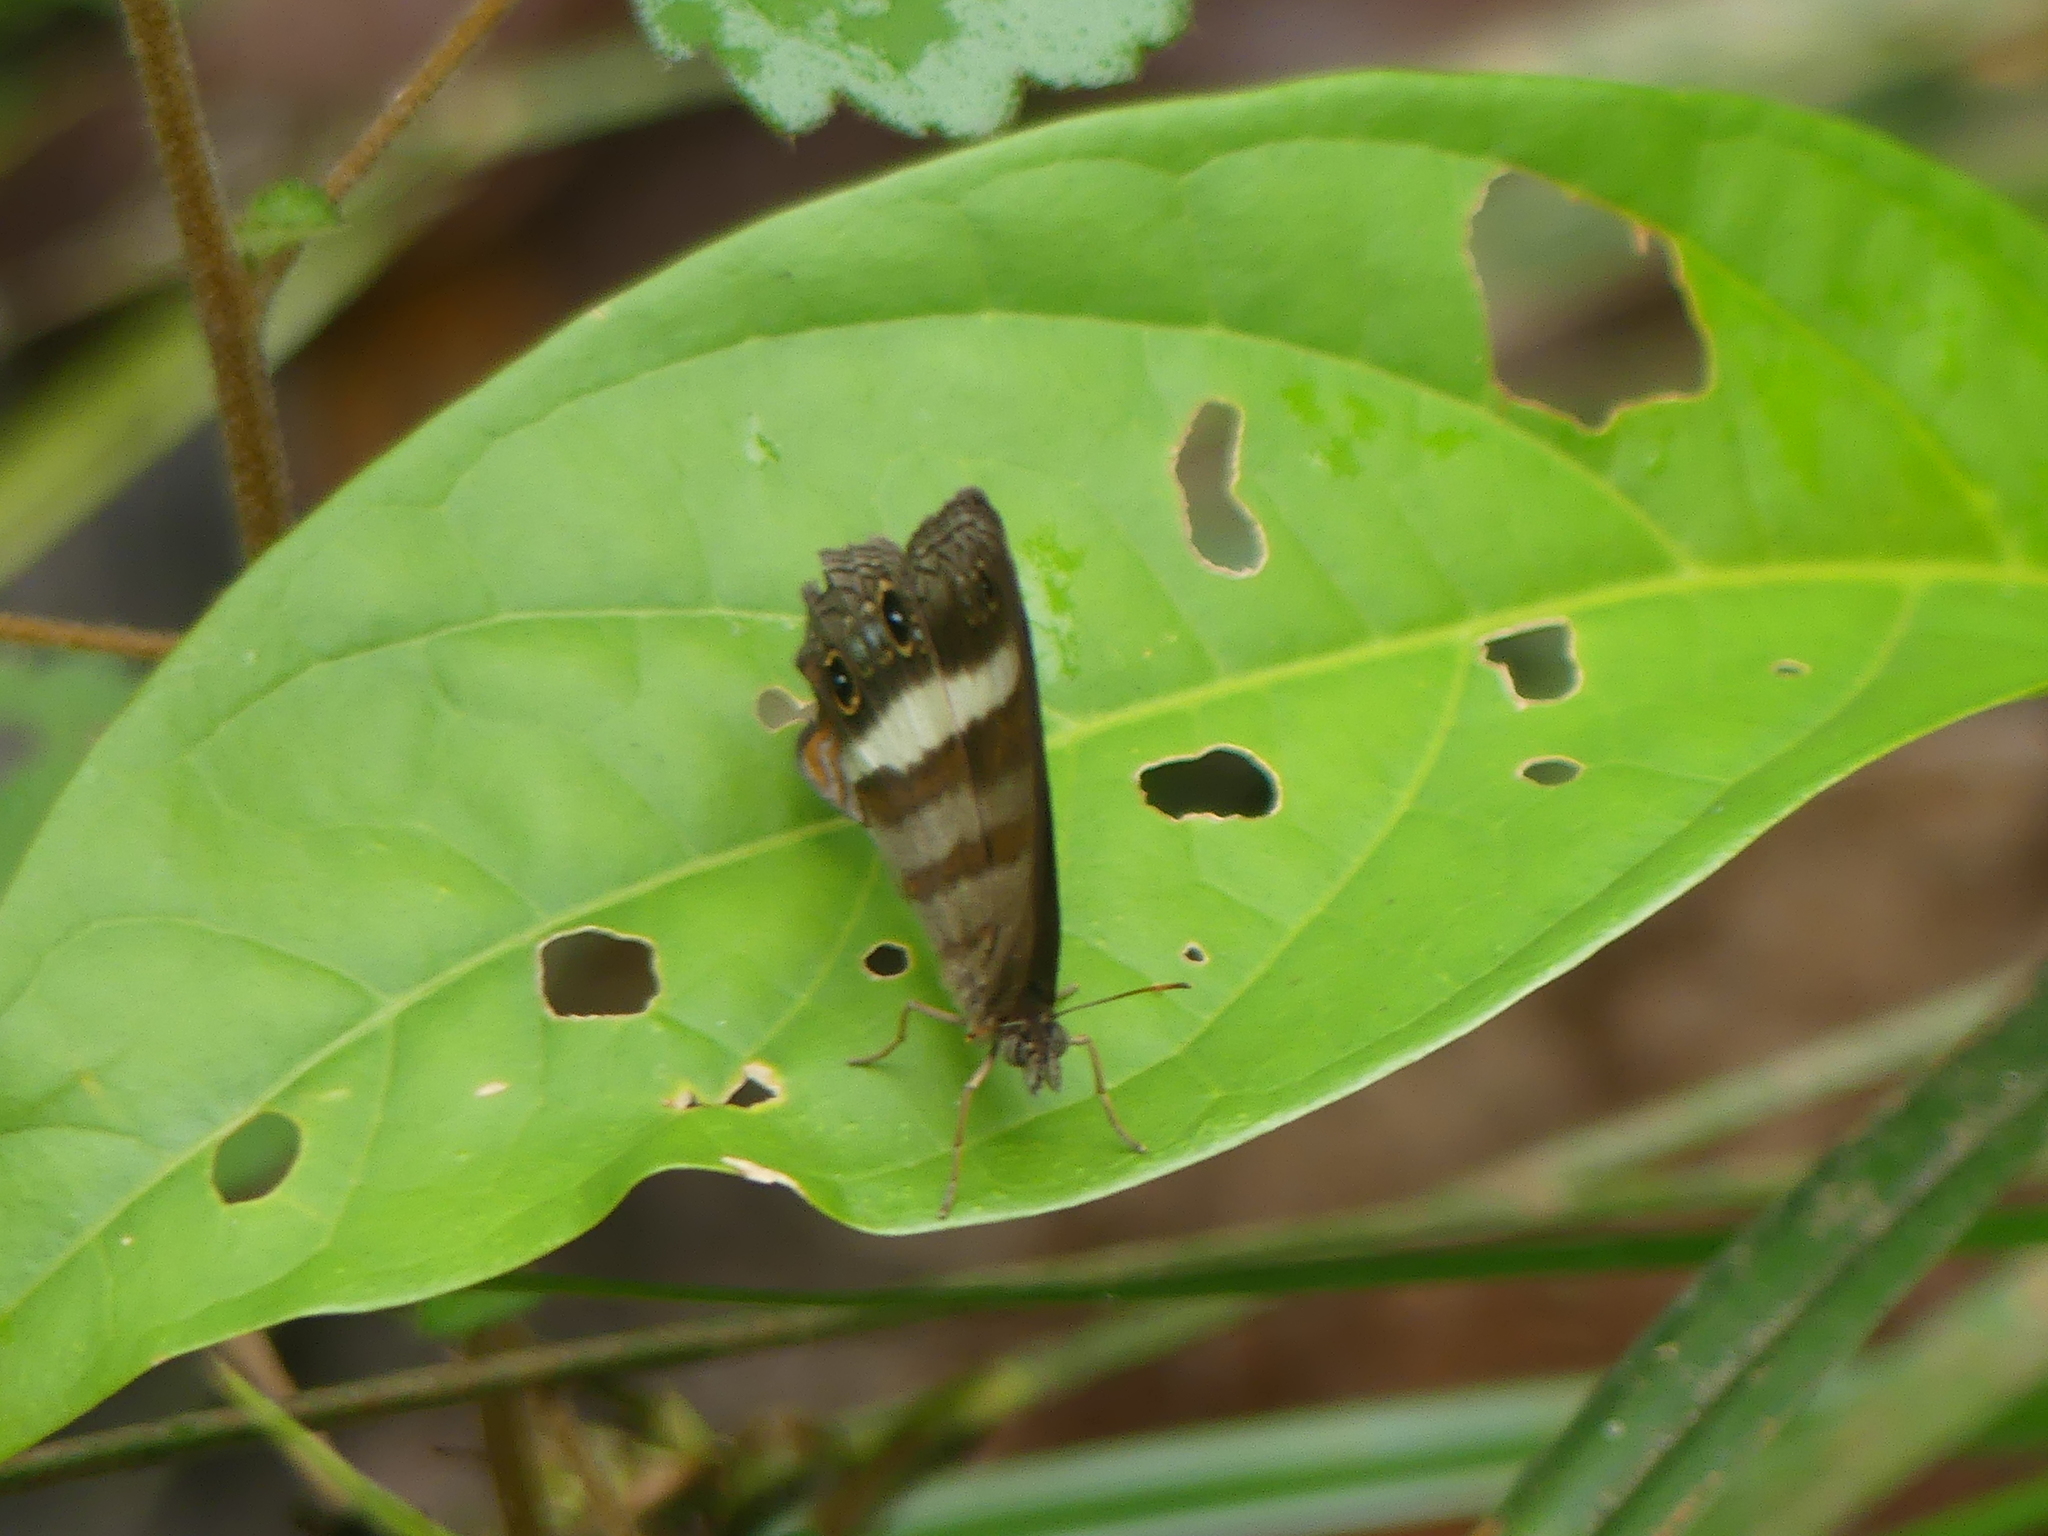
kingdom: Animalia
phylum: Arthropoda
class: Insecta
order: Lepidoptera
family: Nymphalidae
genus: Pareuptychia
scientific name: Pareuptychia summandosa
